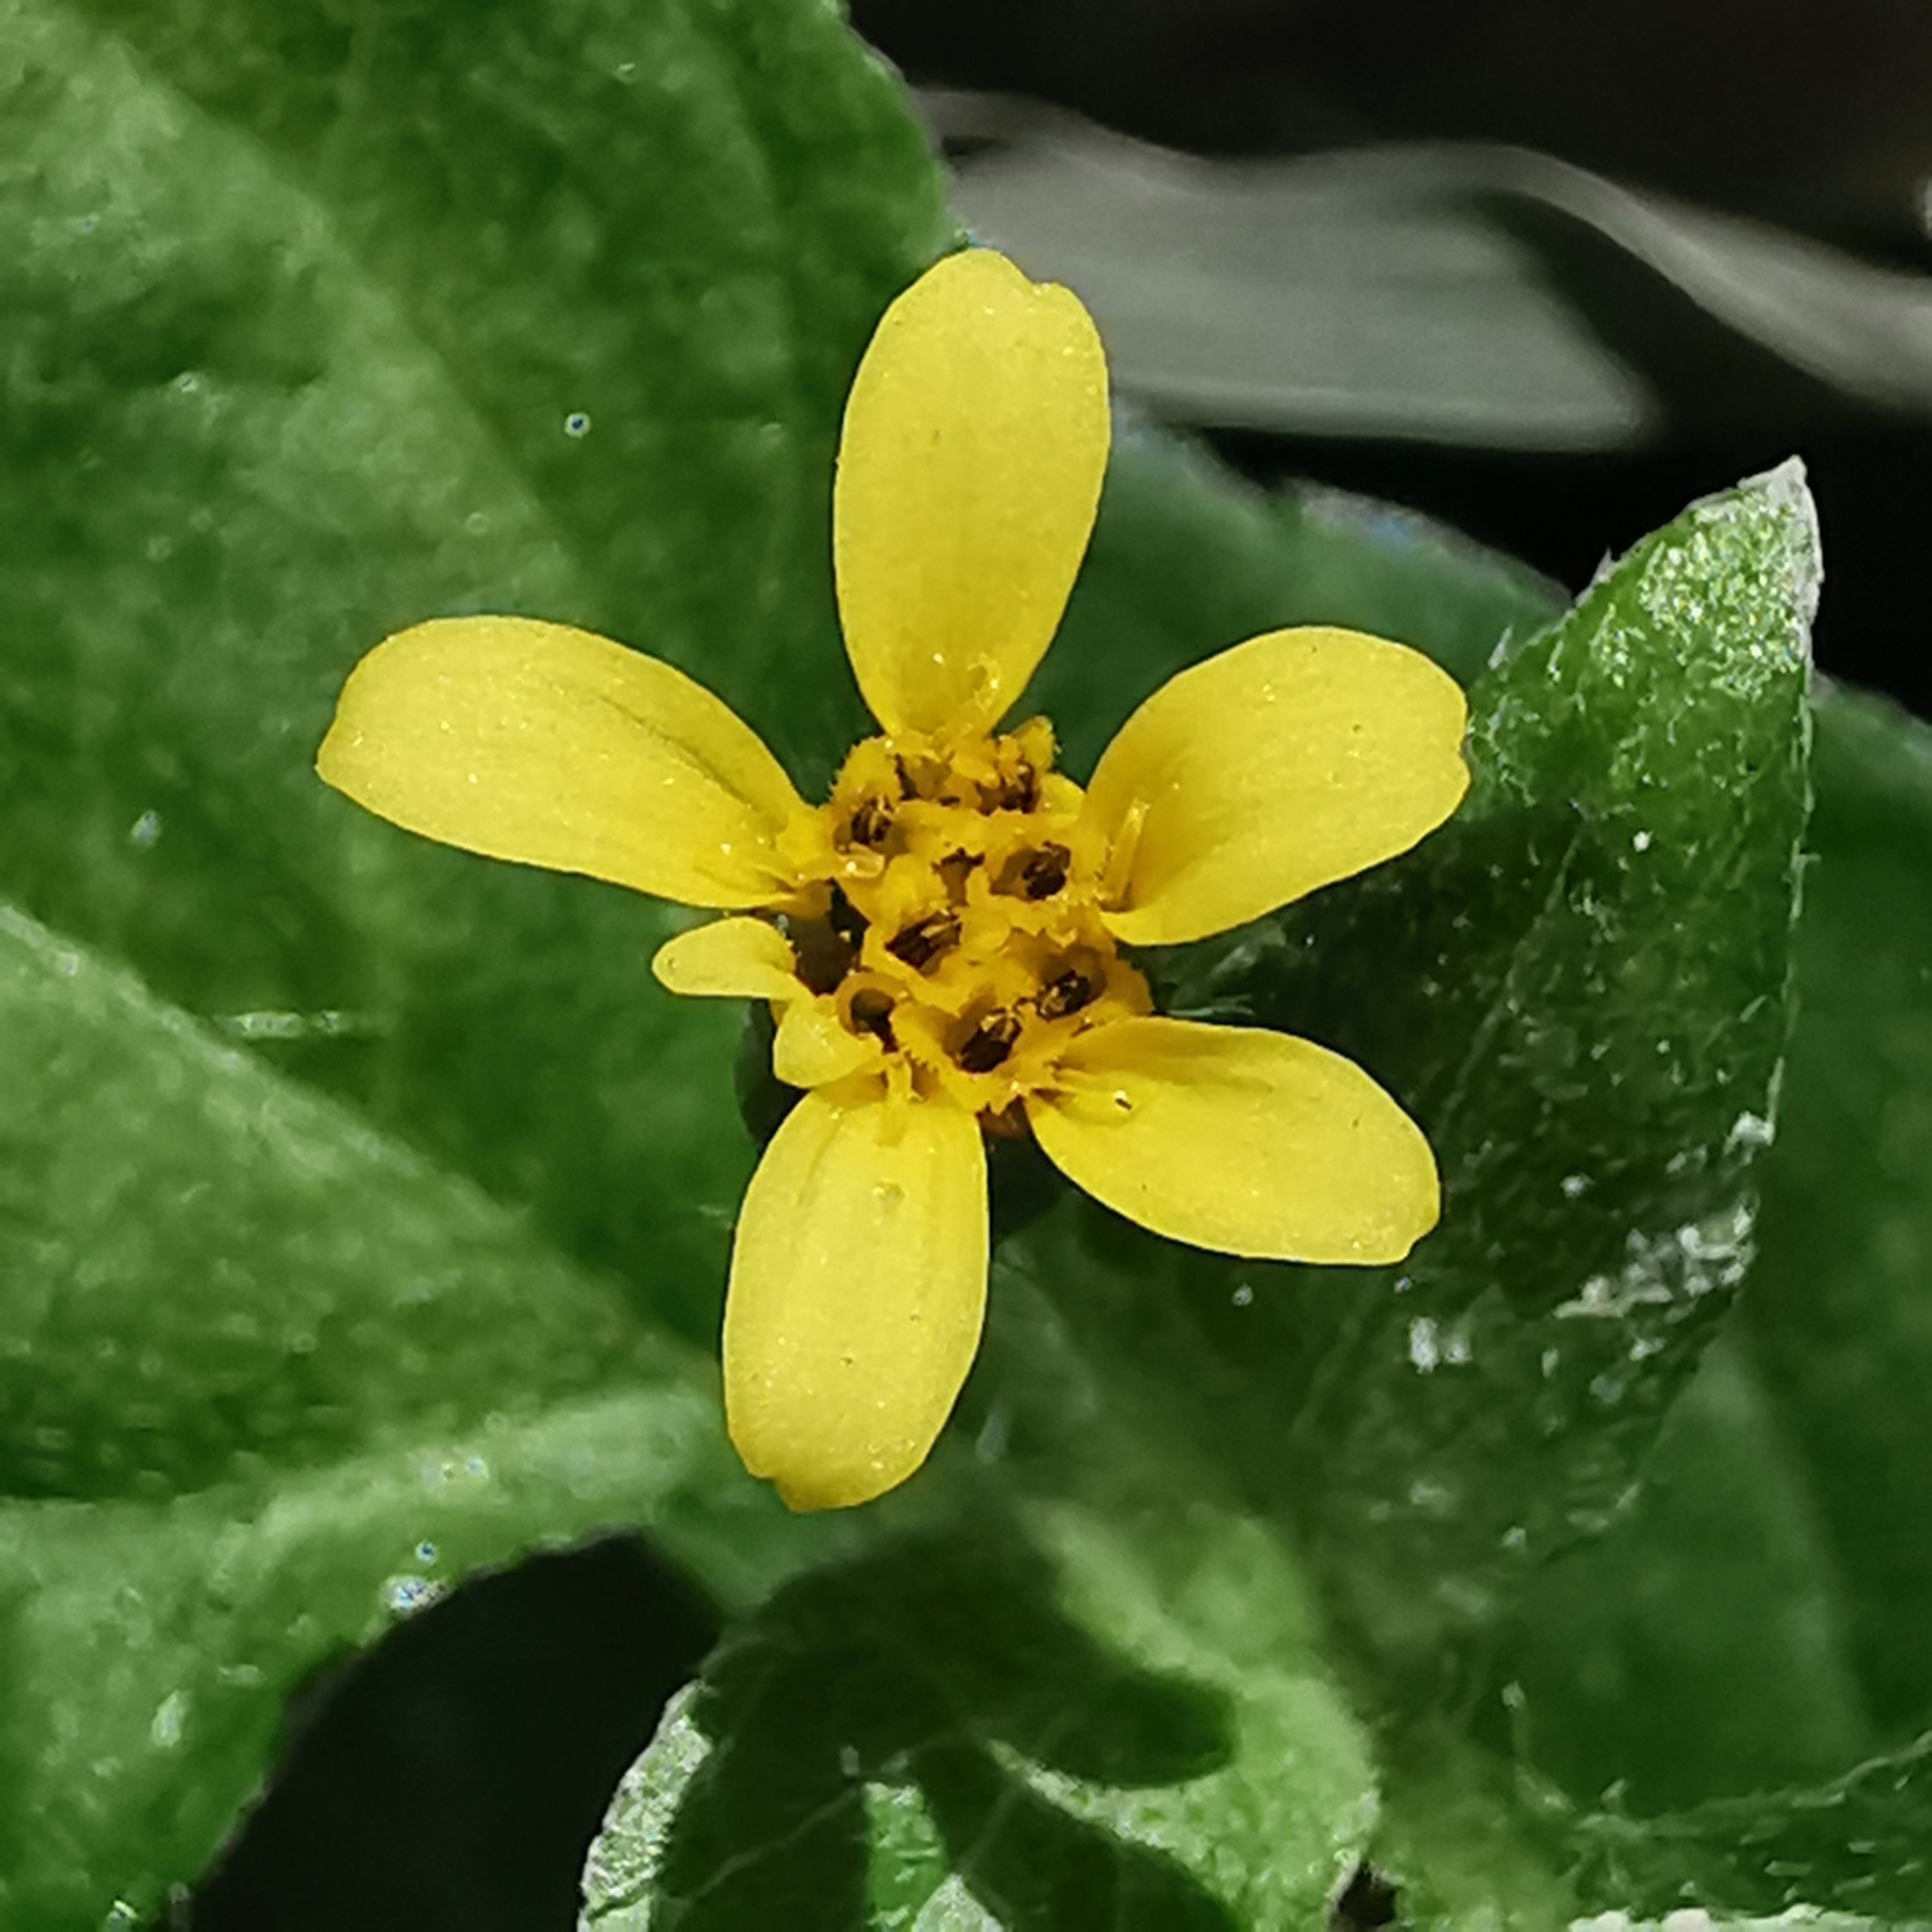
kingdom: Plantae
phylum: Tracheophyta
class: Magnoliopsida
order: Asterales
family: Asteraceae
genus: Calyptocarpus
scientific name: Calyptocarpus vialis
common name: Straggler daisy
